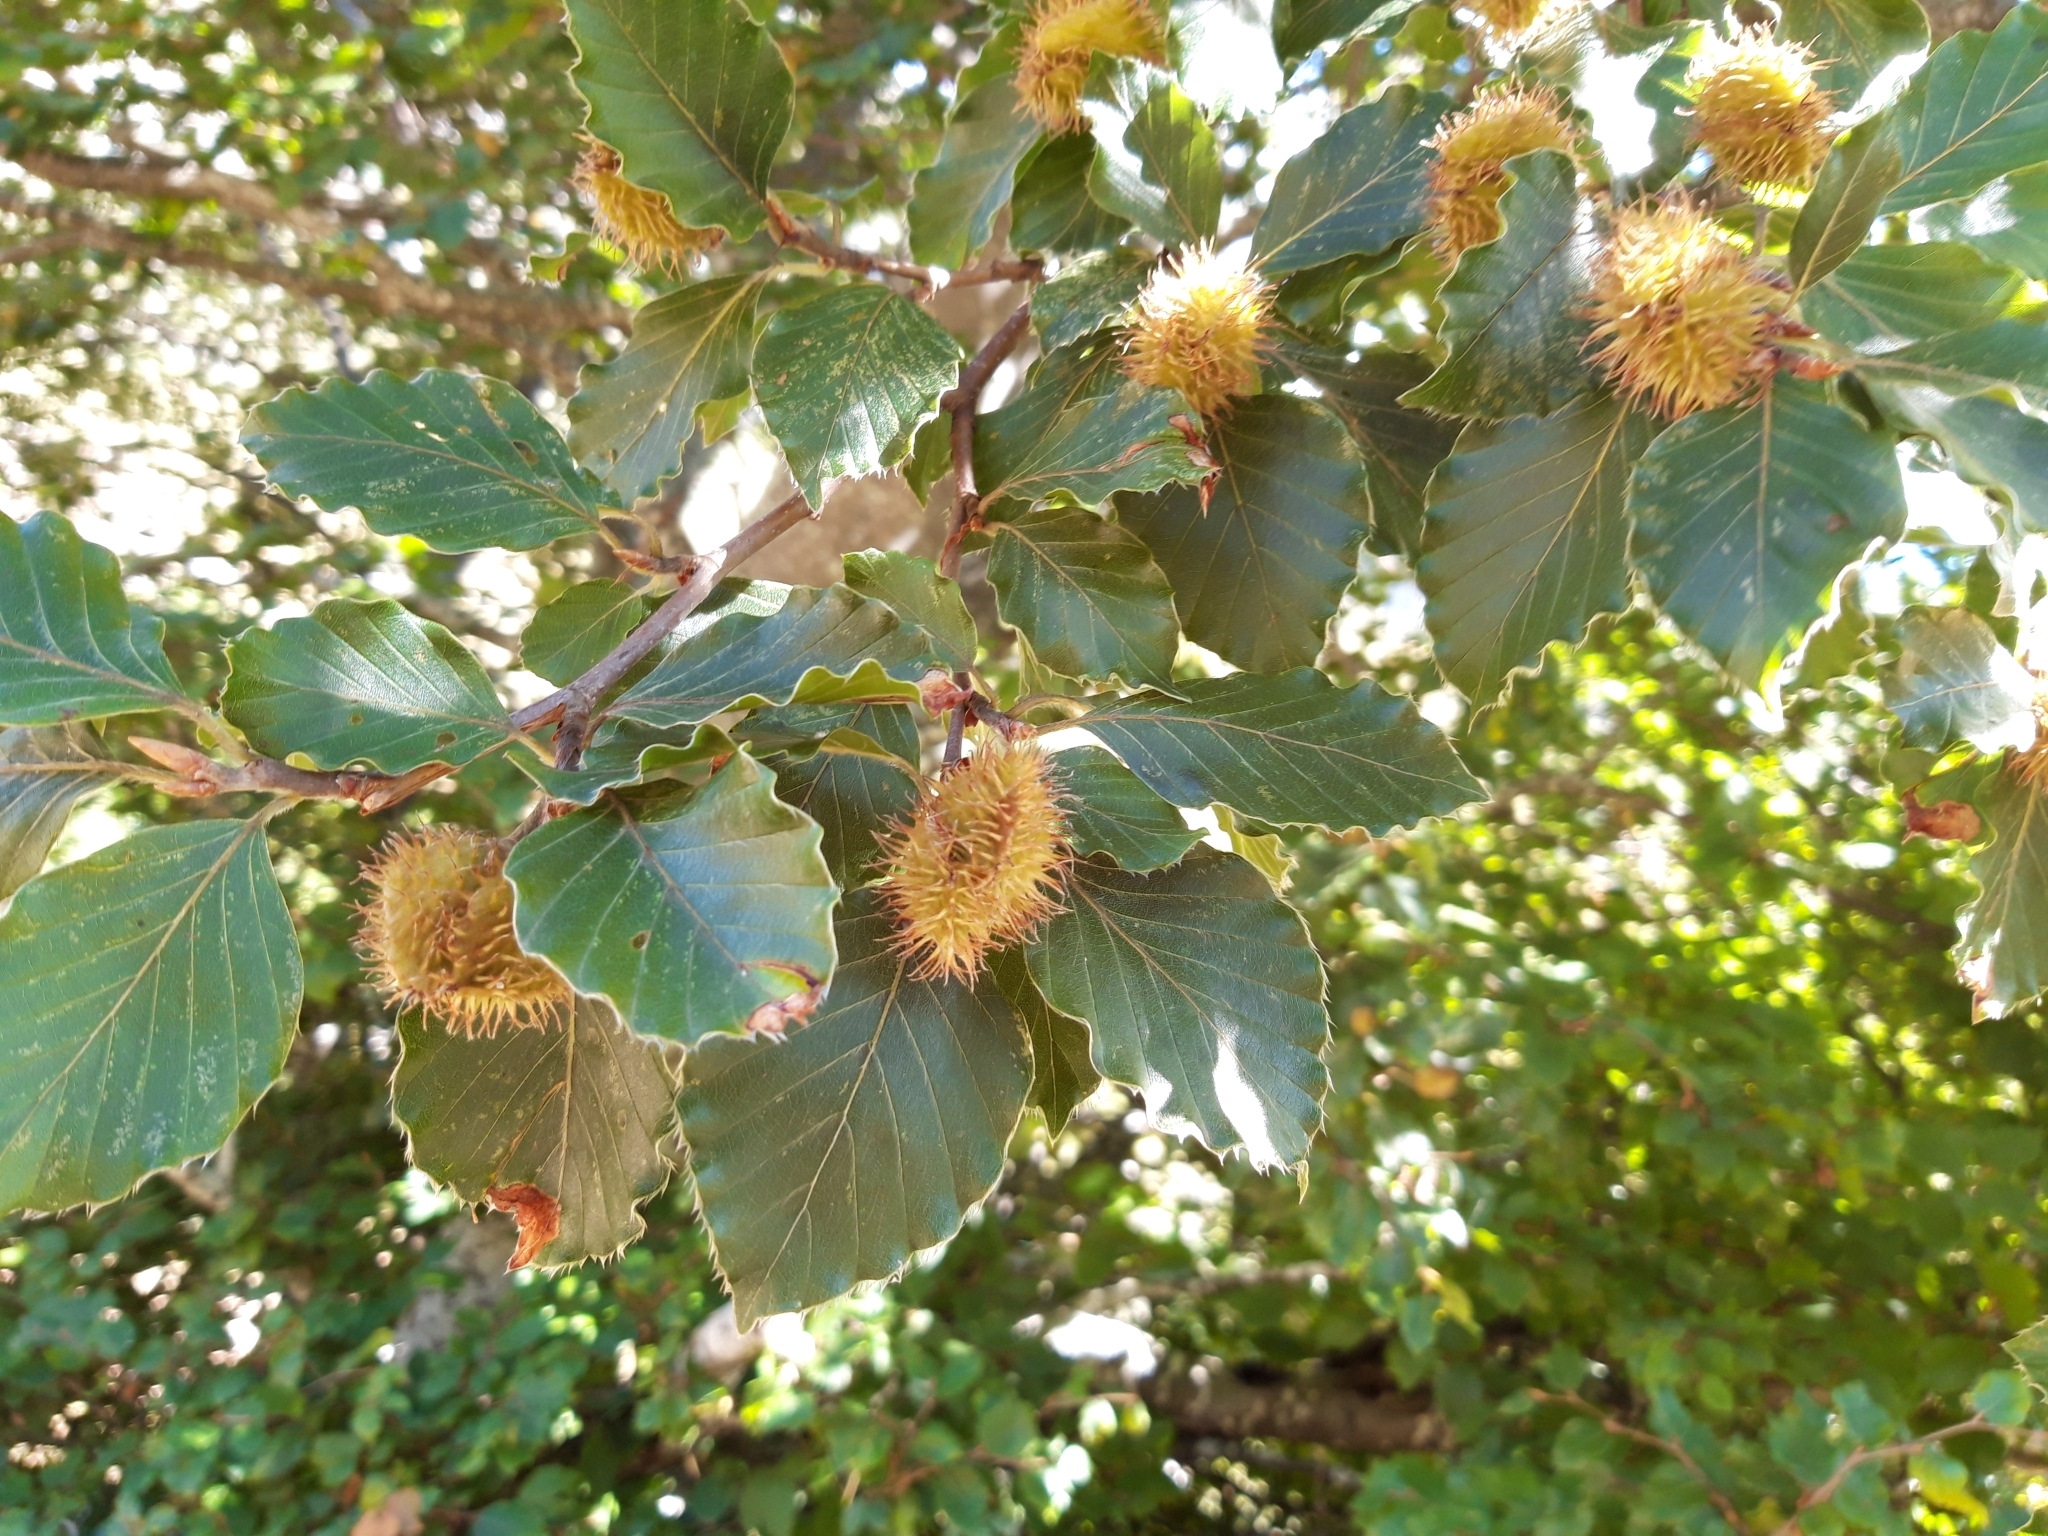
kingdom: Plantae
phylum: Tracheophyta
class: Magnoliopsida
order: Fagales
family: Fagaceae
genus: Fagus
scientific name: Fagus sylvatica
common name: Beech
